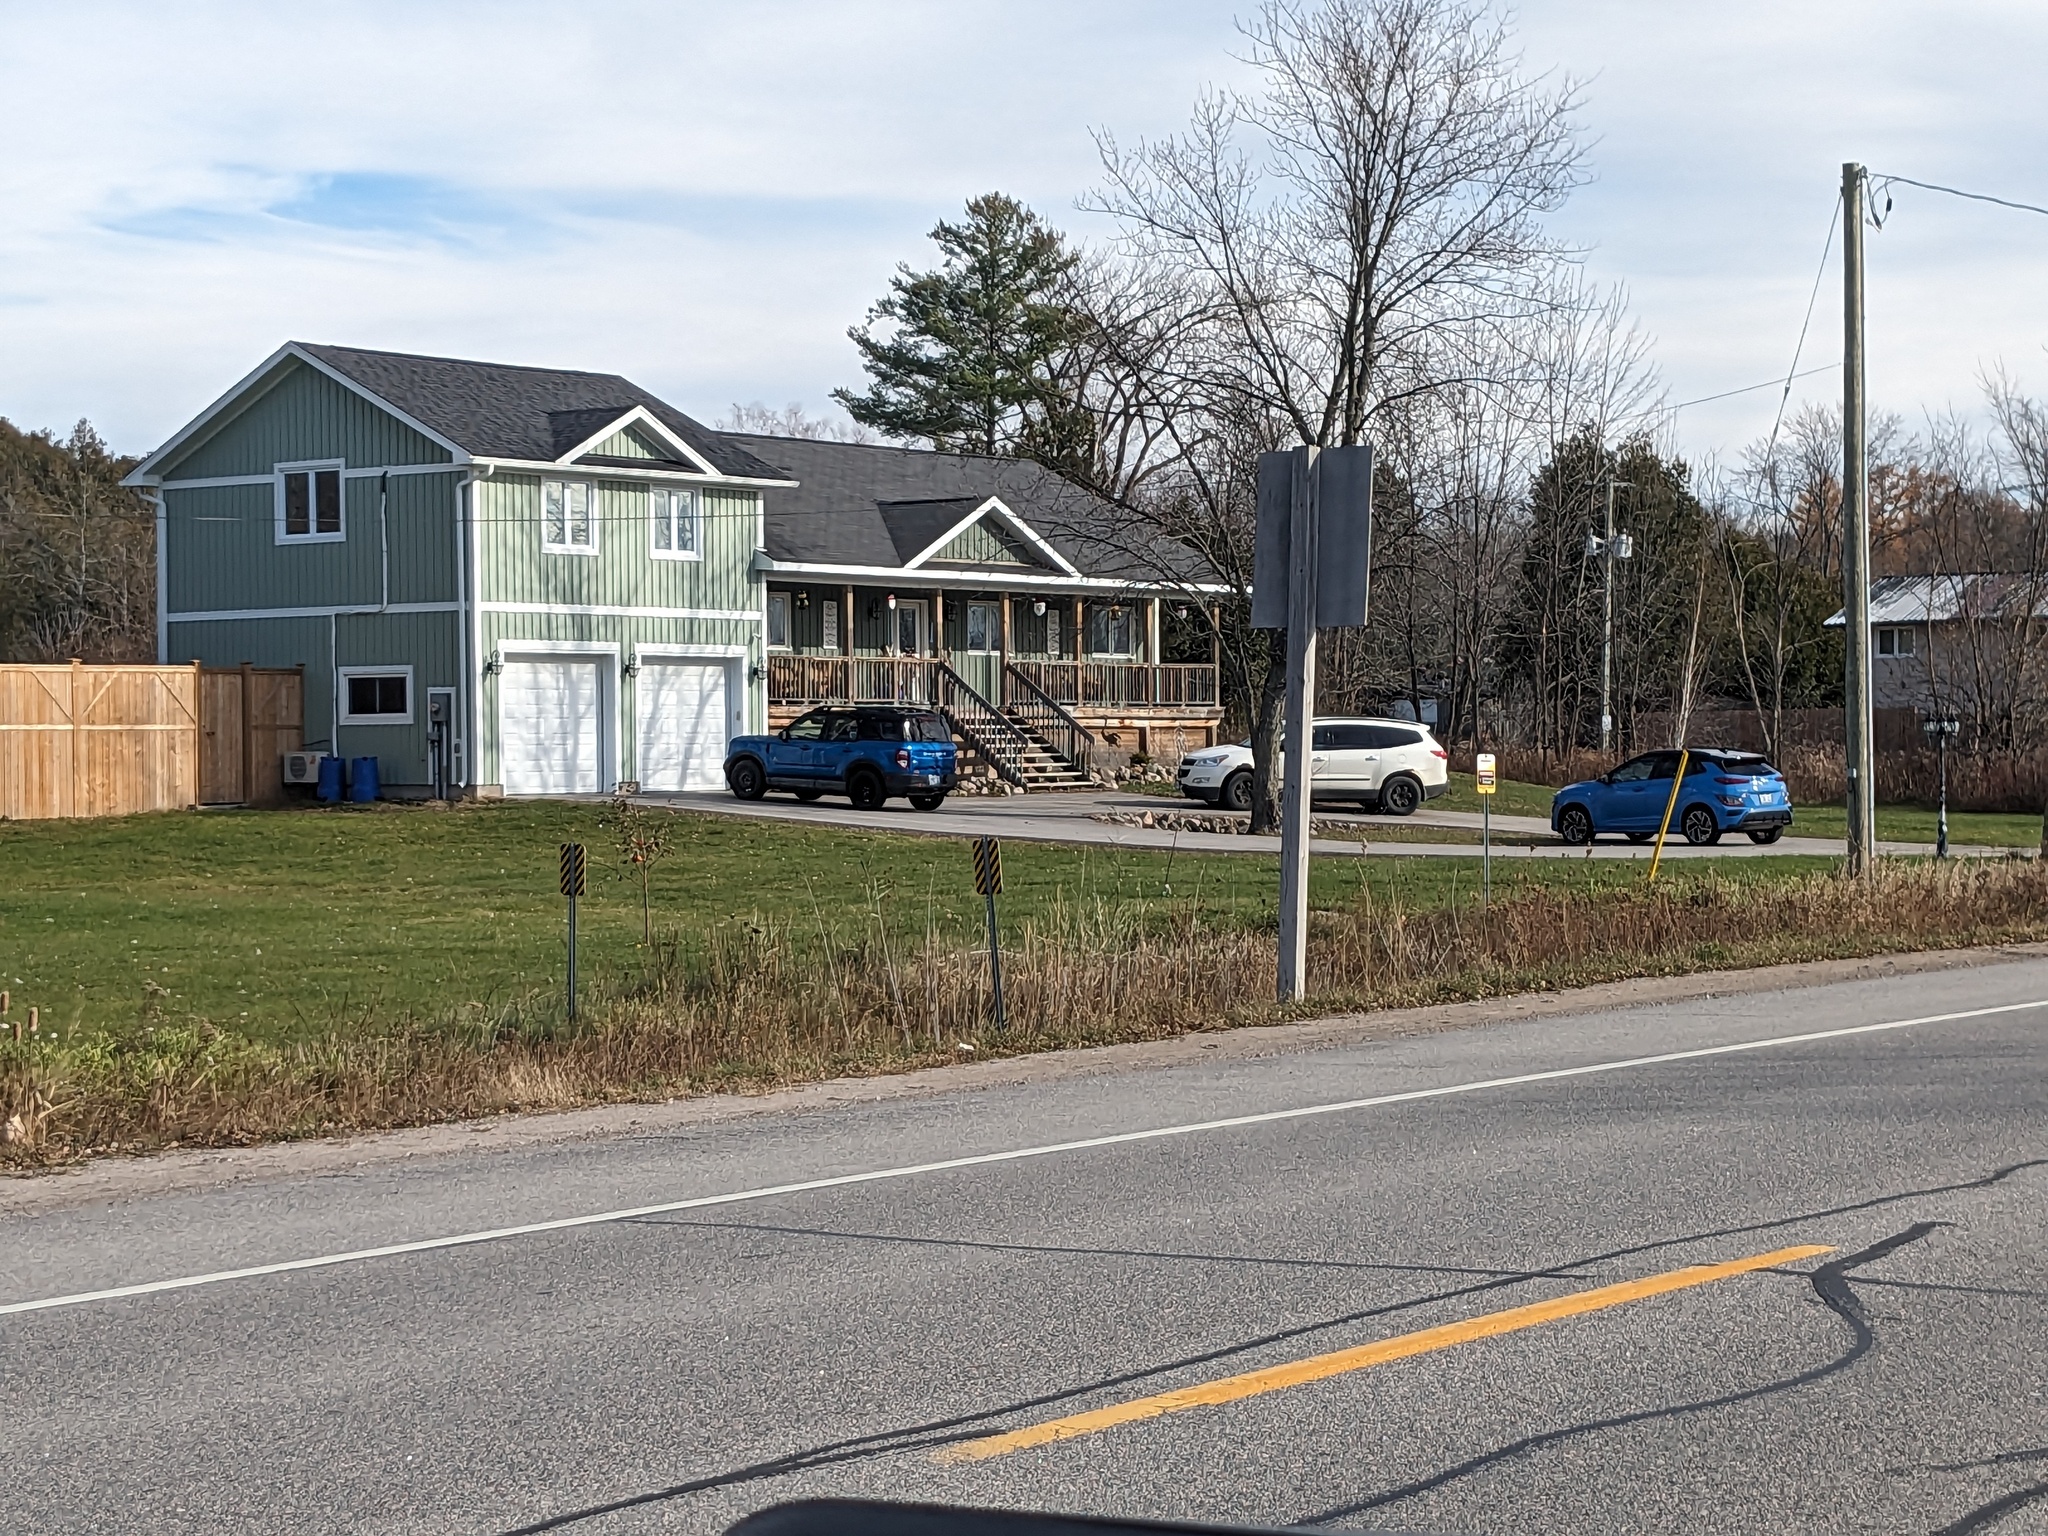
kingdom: Plantae
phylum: Tracheophyta
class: Liliopsida
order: Poales
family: Poaceae
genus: Phragmites
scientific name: Phragmites australis
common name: Common reed
